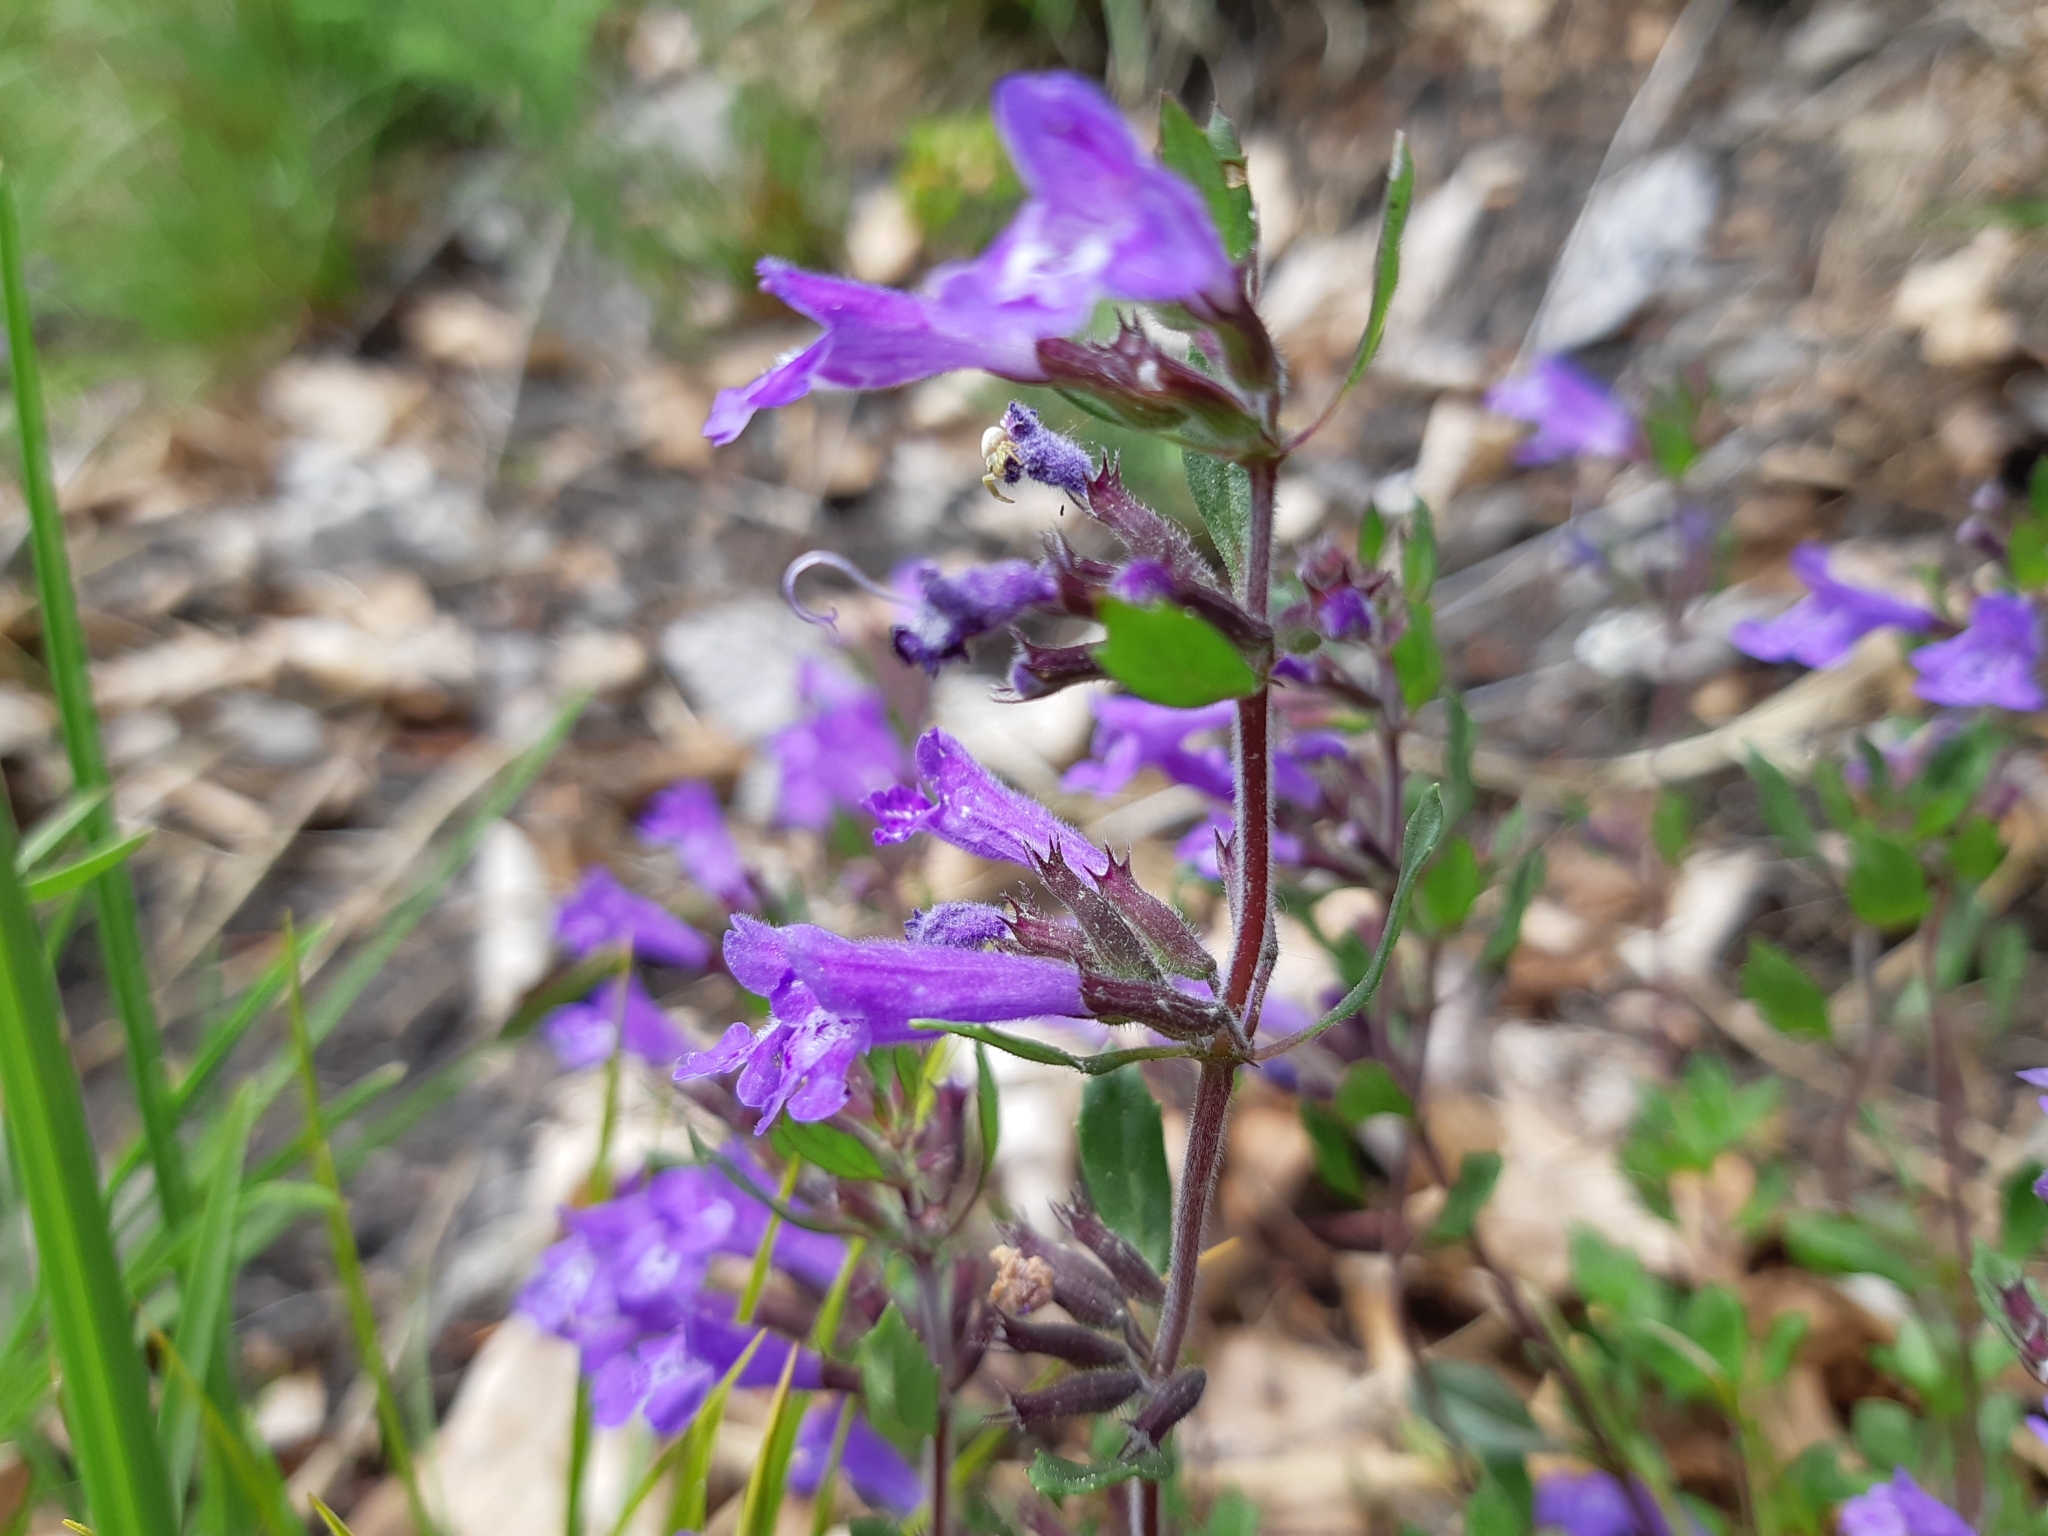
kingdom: Plantae
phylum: Tracheophyta
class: Magnoliopsida
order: Lamiales
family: Lamiaceae
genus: Clinopodium
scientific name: Clinopodium alpinum
